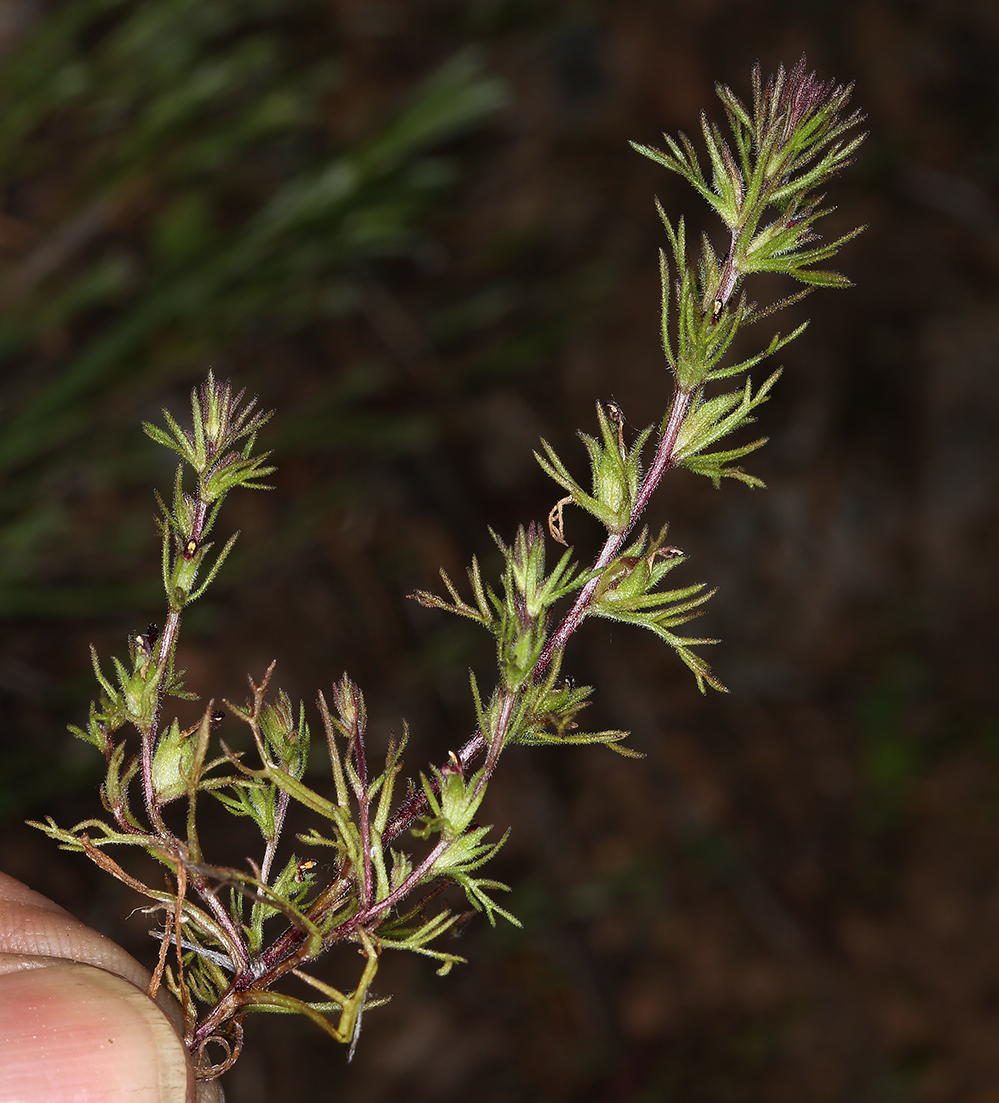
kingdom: Plantae
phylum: Tracheophyta
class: Magnoliopsida
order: Lamiales
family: Orobanchaceae
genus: Triphysaria
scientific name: Triphysaria pusilla
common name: Dwarf false owl-clover
